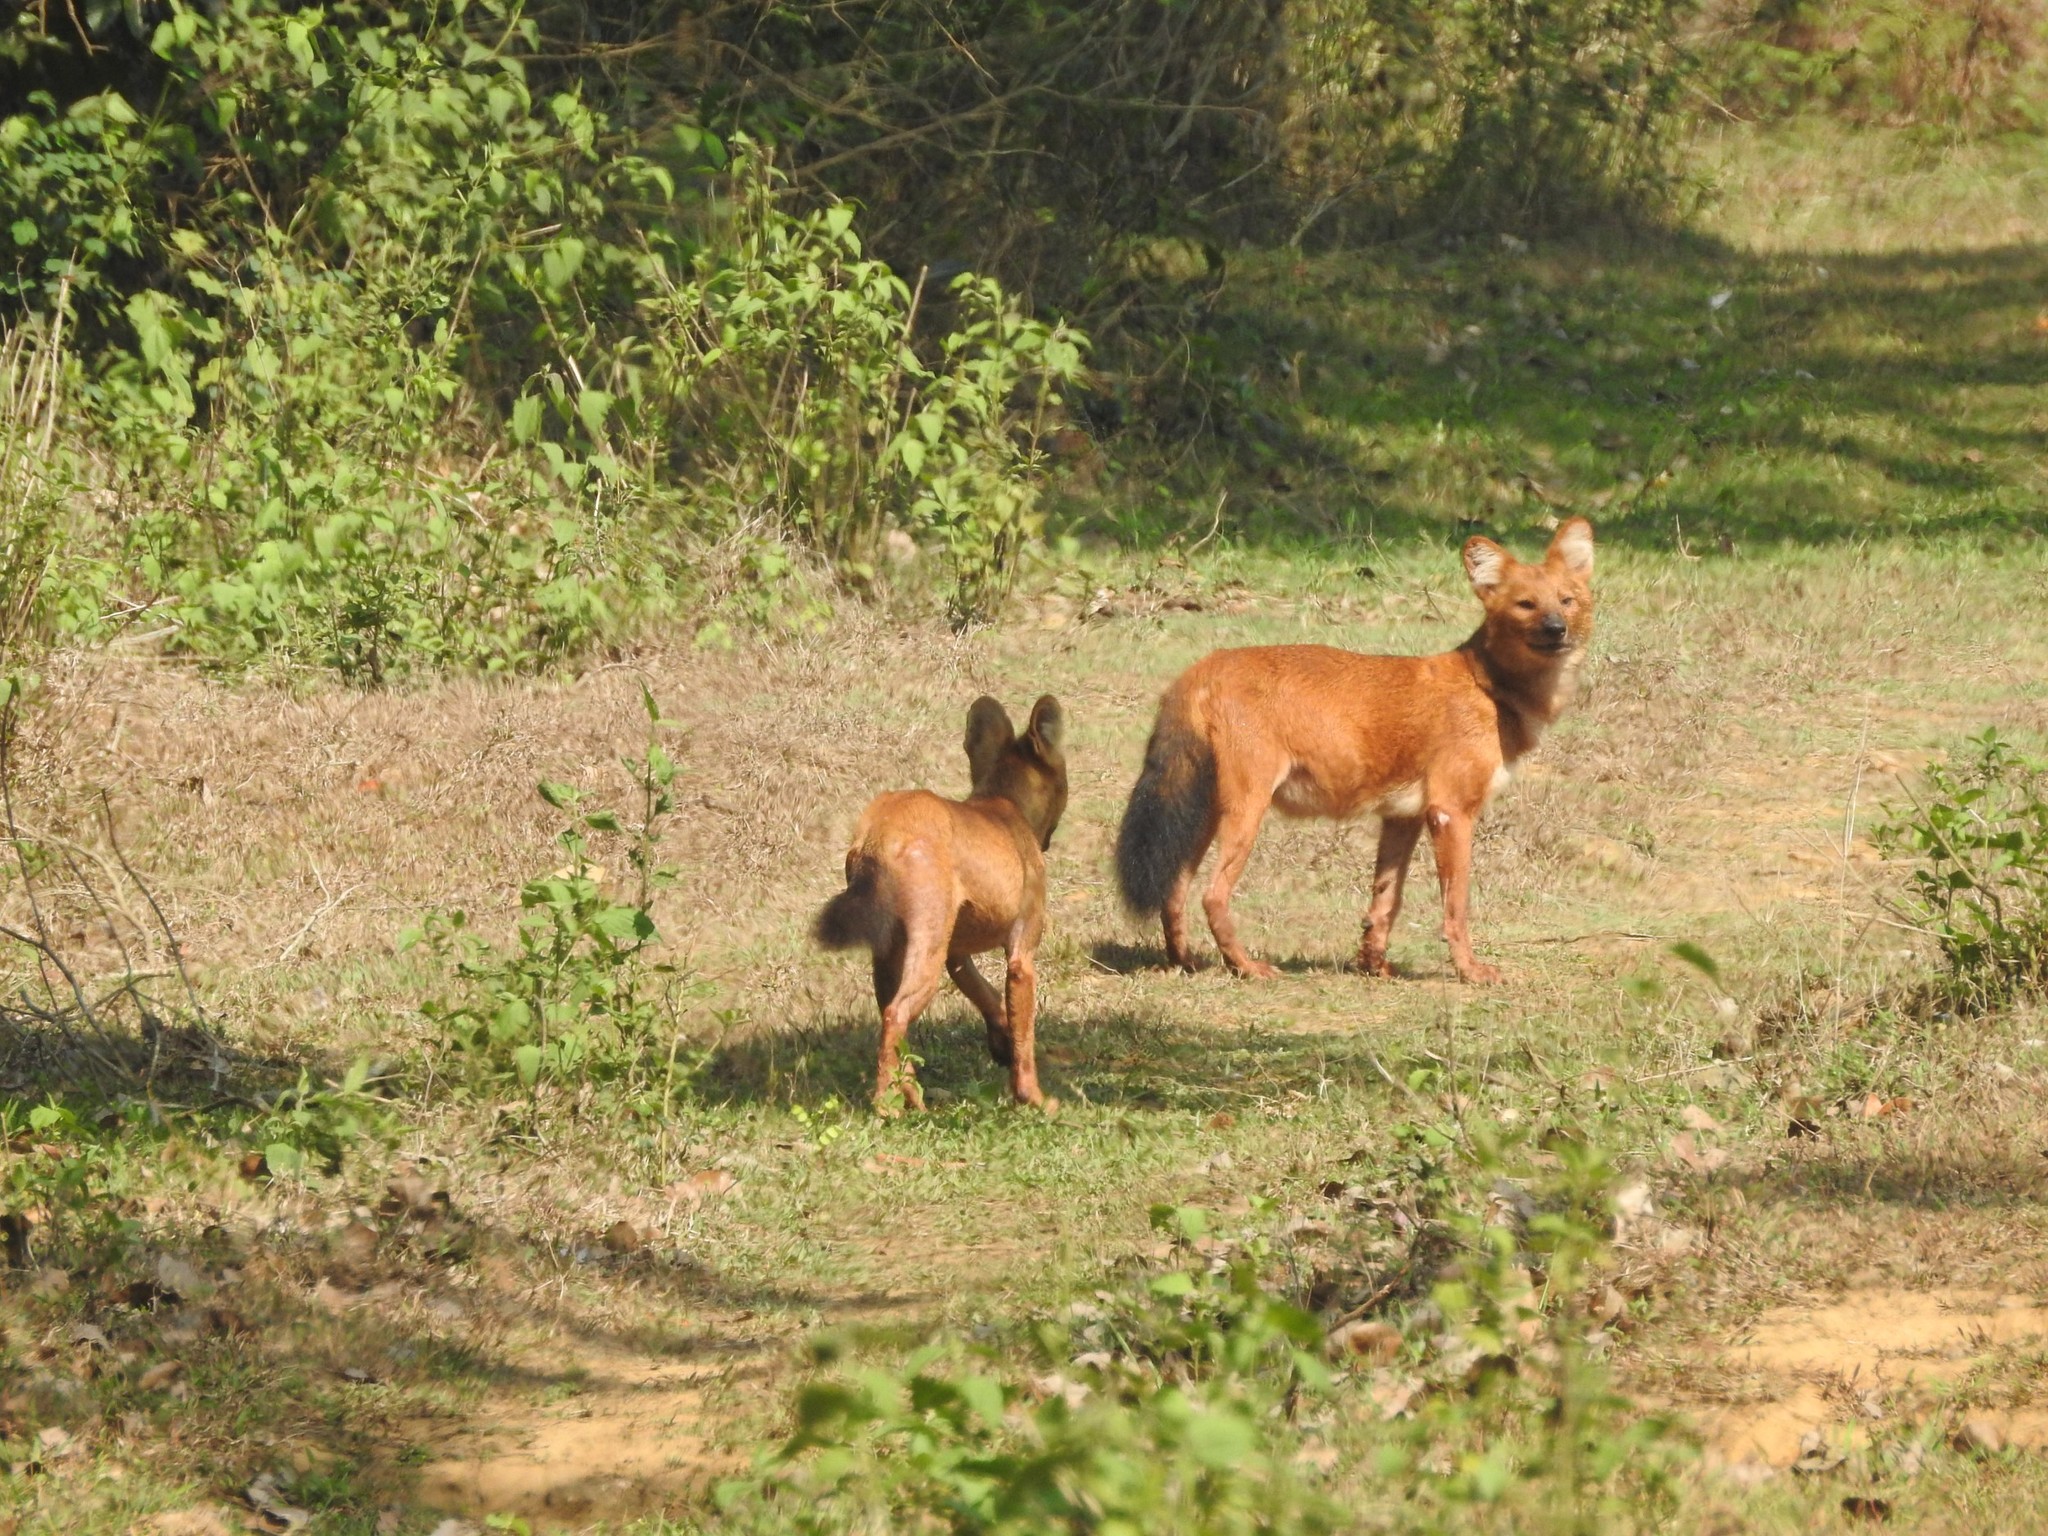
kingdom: Animalia
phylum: Chordata
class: Mammalia
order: Carnivora
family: Canidae
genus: Cuon
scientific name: Cuon alpinus
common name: Dhole
